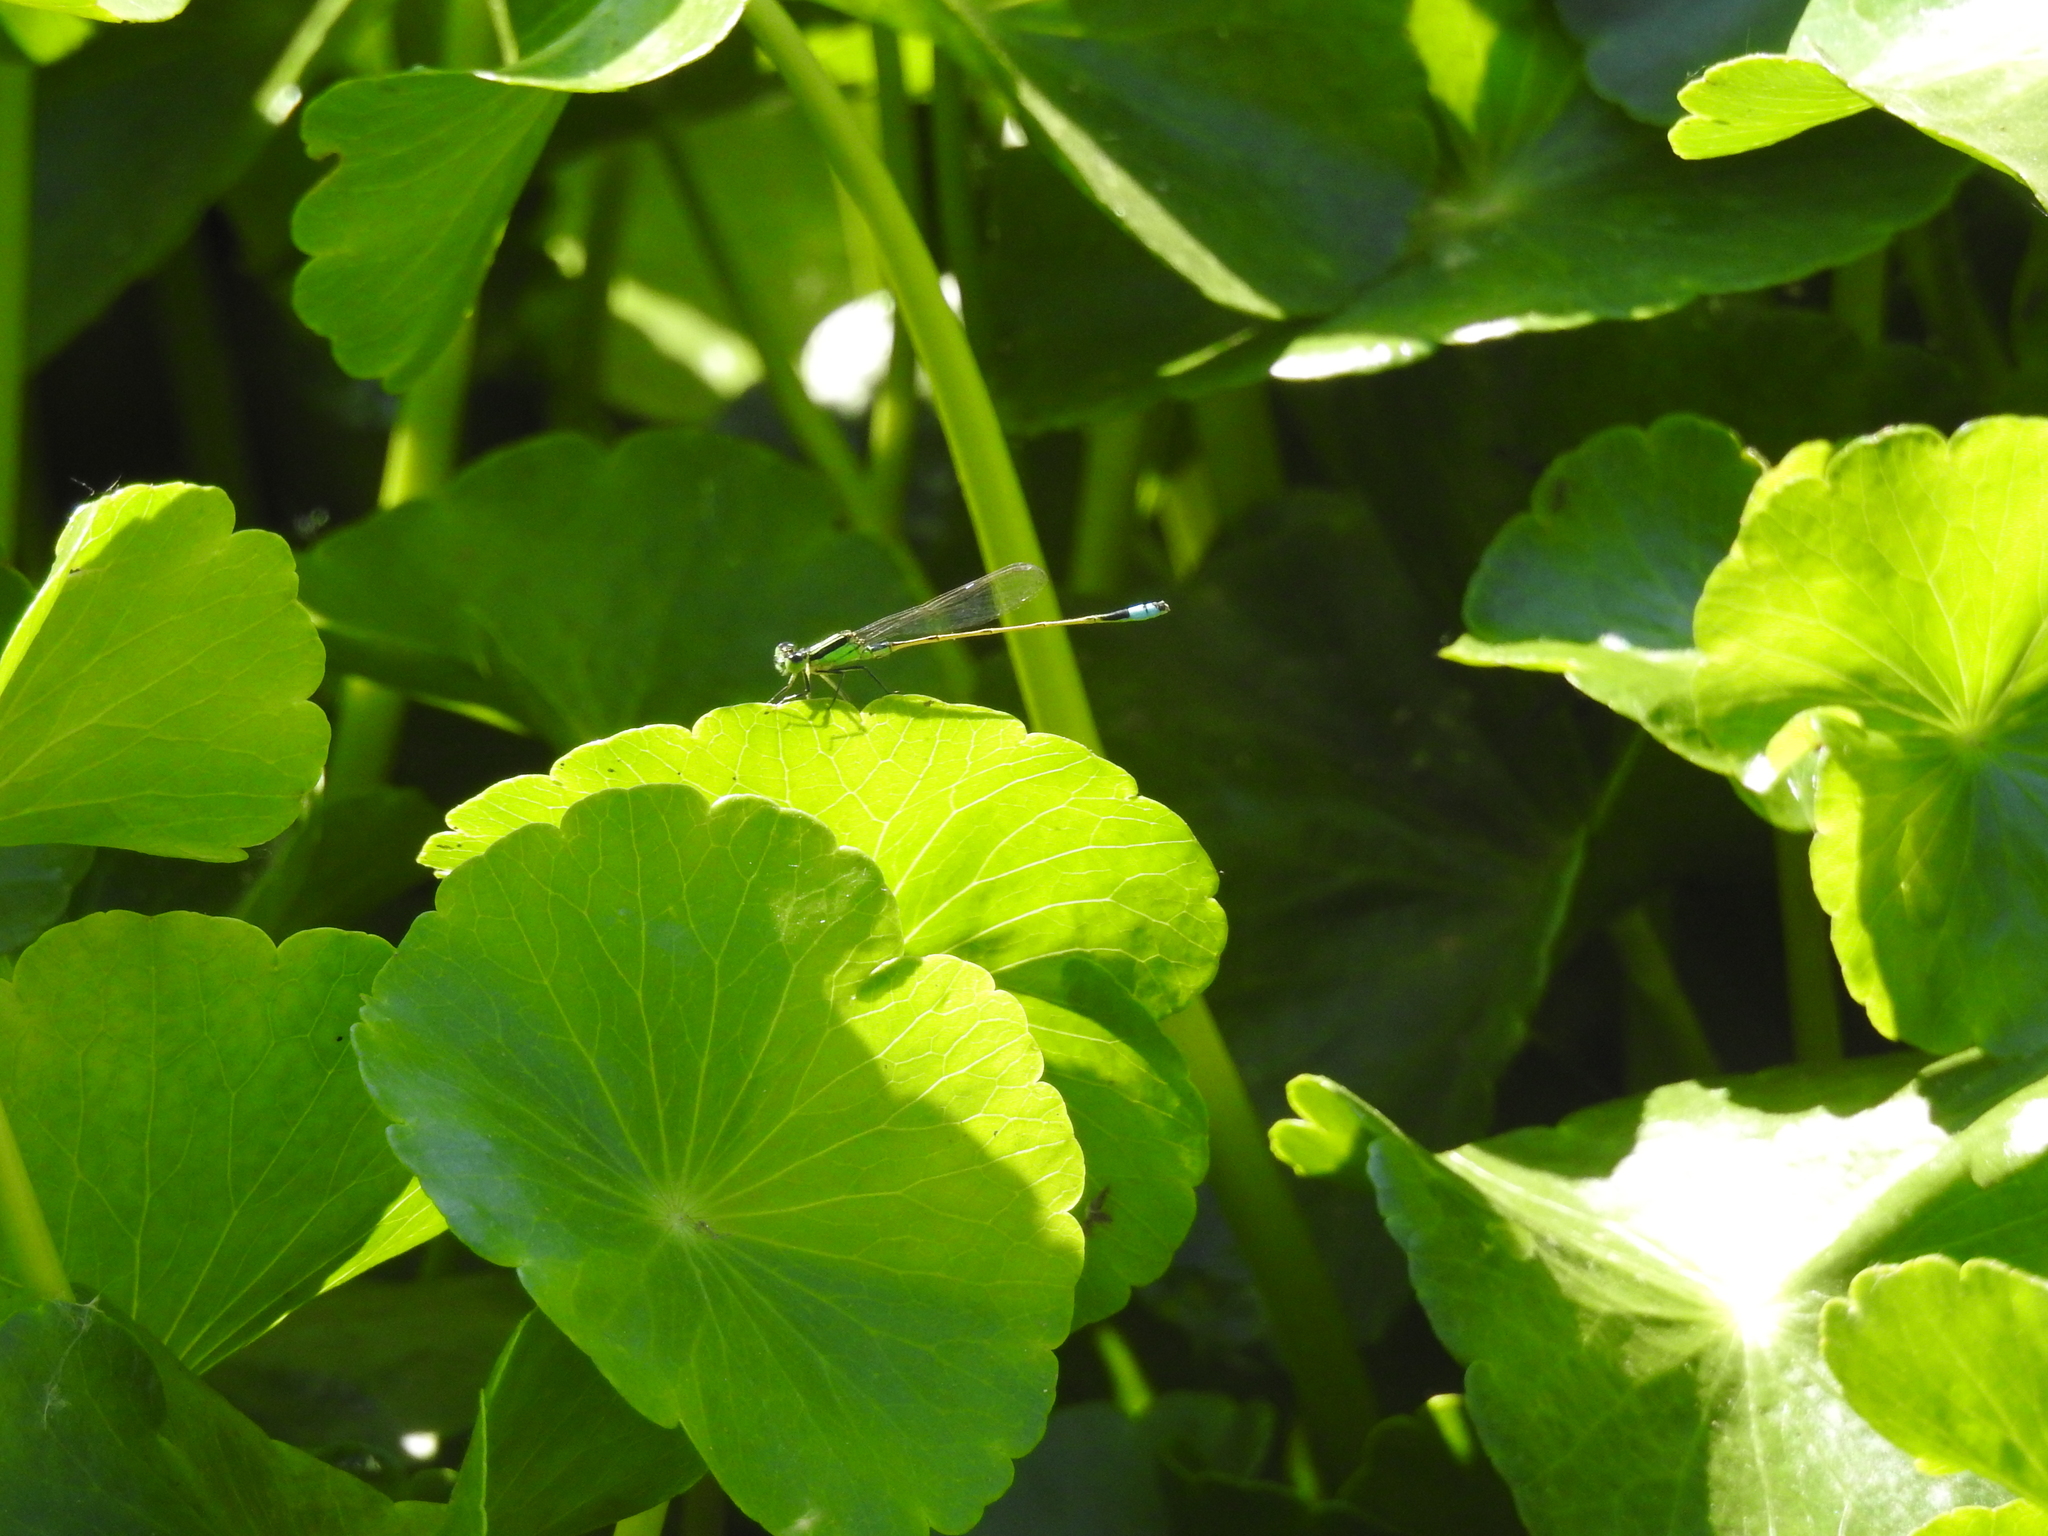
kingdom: Animalia
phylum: Arthropoda
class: Insecta
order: Odonata
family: Coenagrionidae
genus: Ischnura
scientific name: Ischnura ramburii
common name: Rambur's forktail
